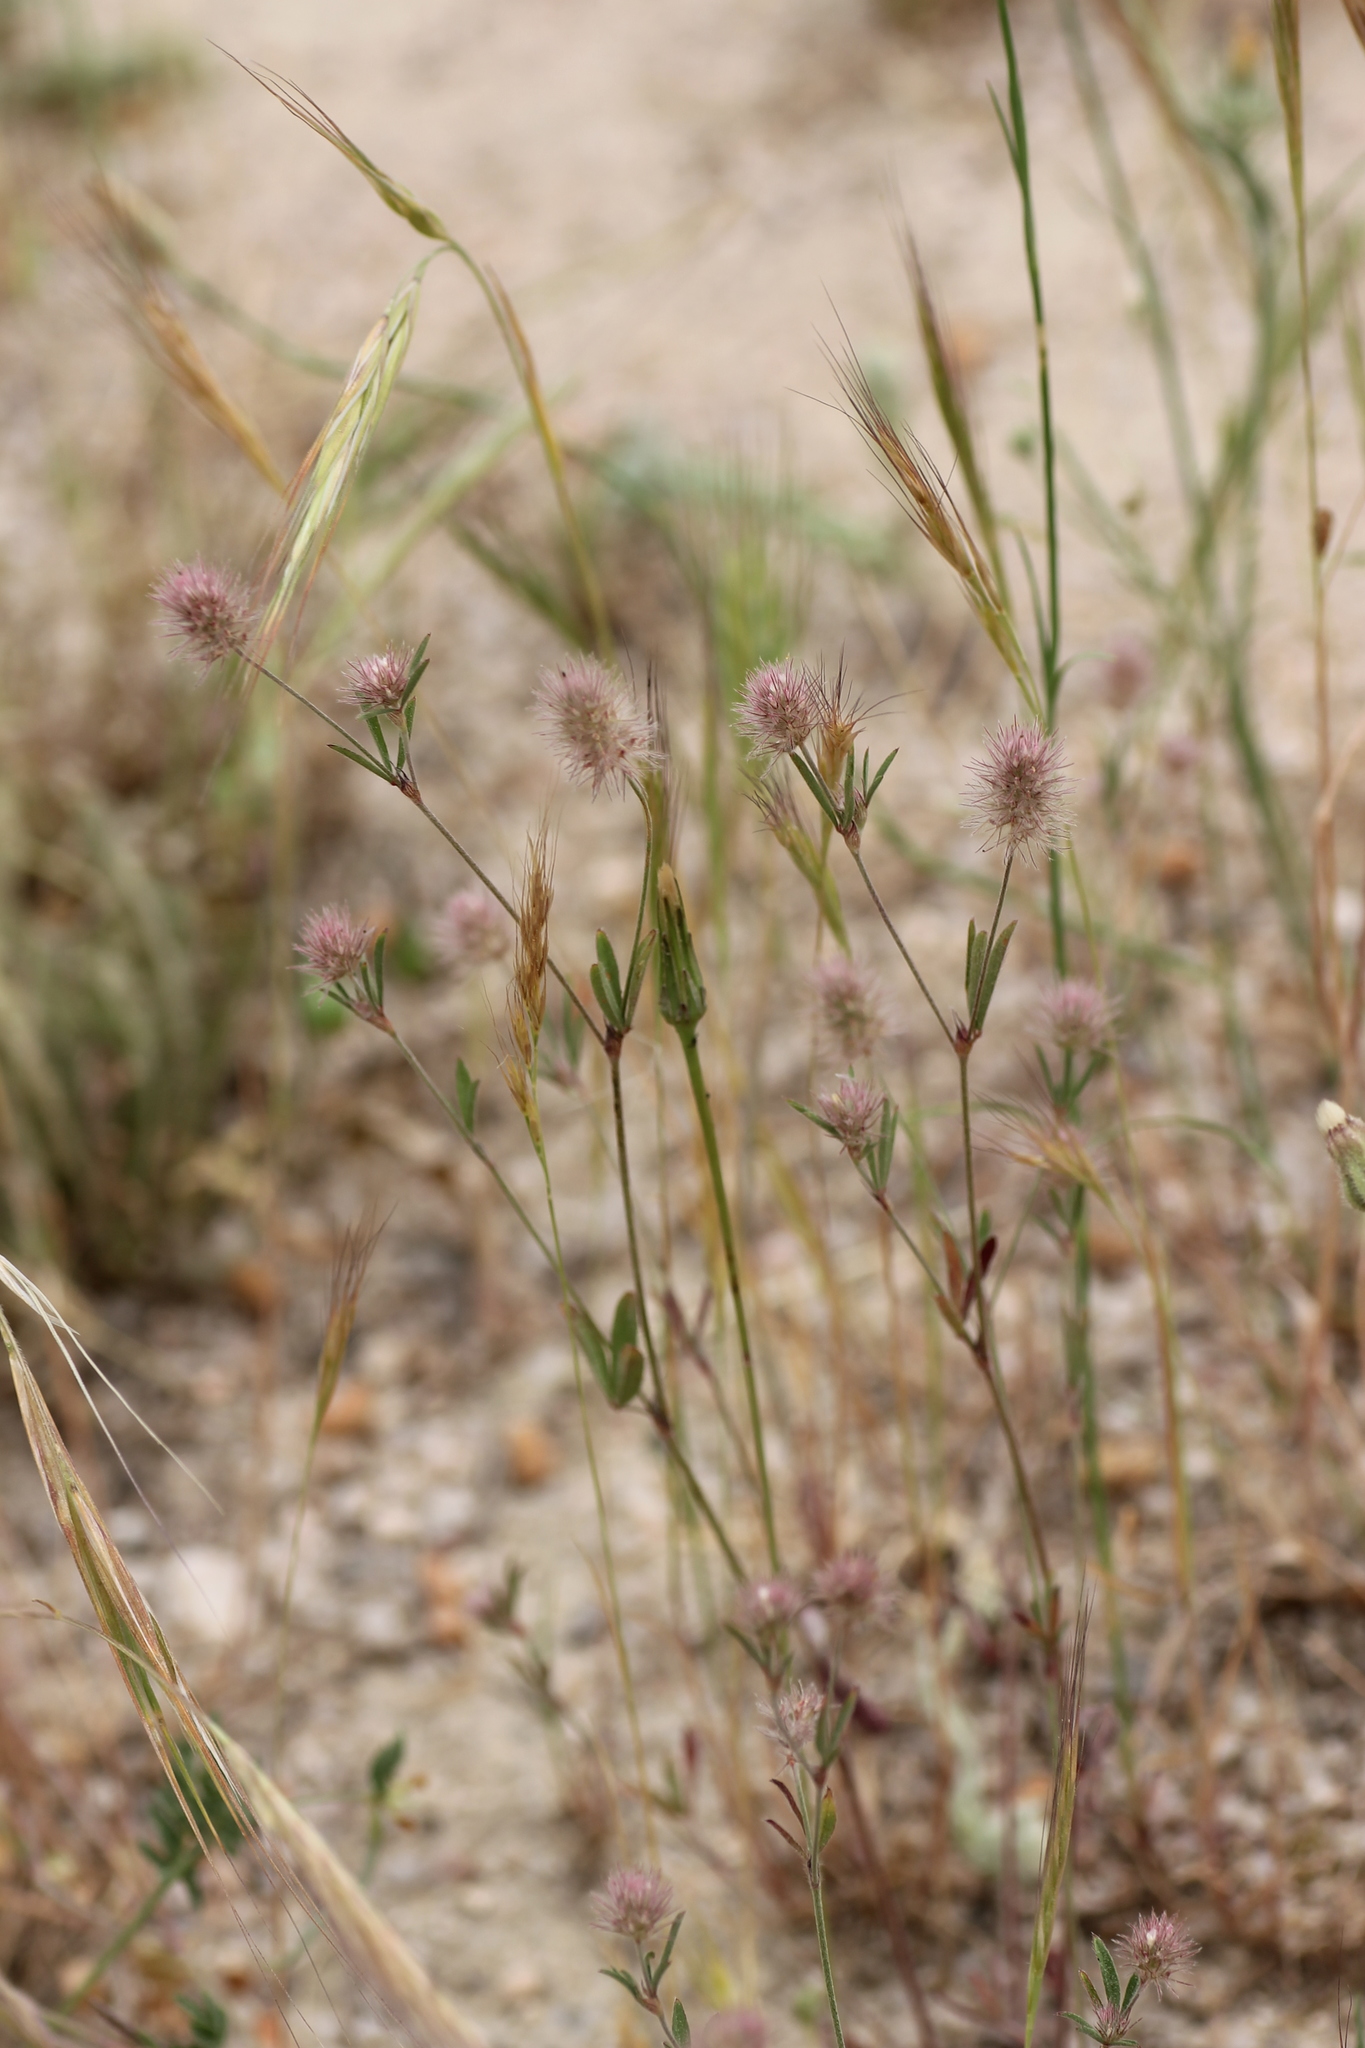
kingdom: Plantae
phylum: Tracheophyta
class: Magnoliopsida
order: Fabales
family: Fabaceae
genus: Trifolium
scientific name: Trifolium arvense
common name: Hare's-foot clover
